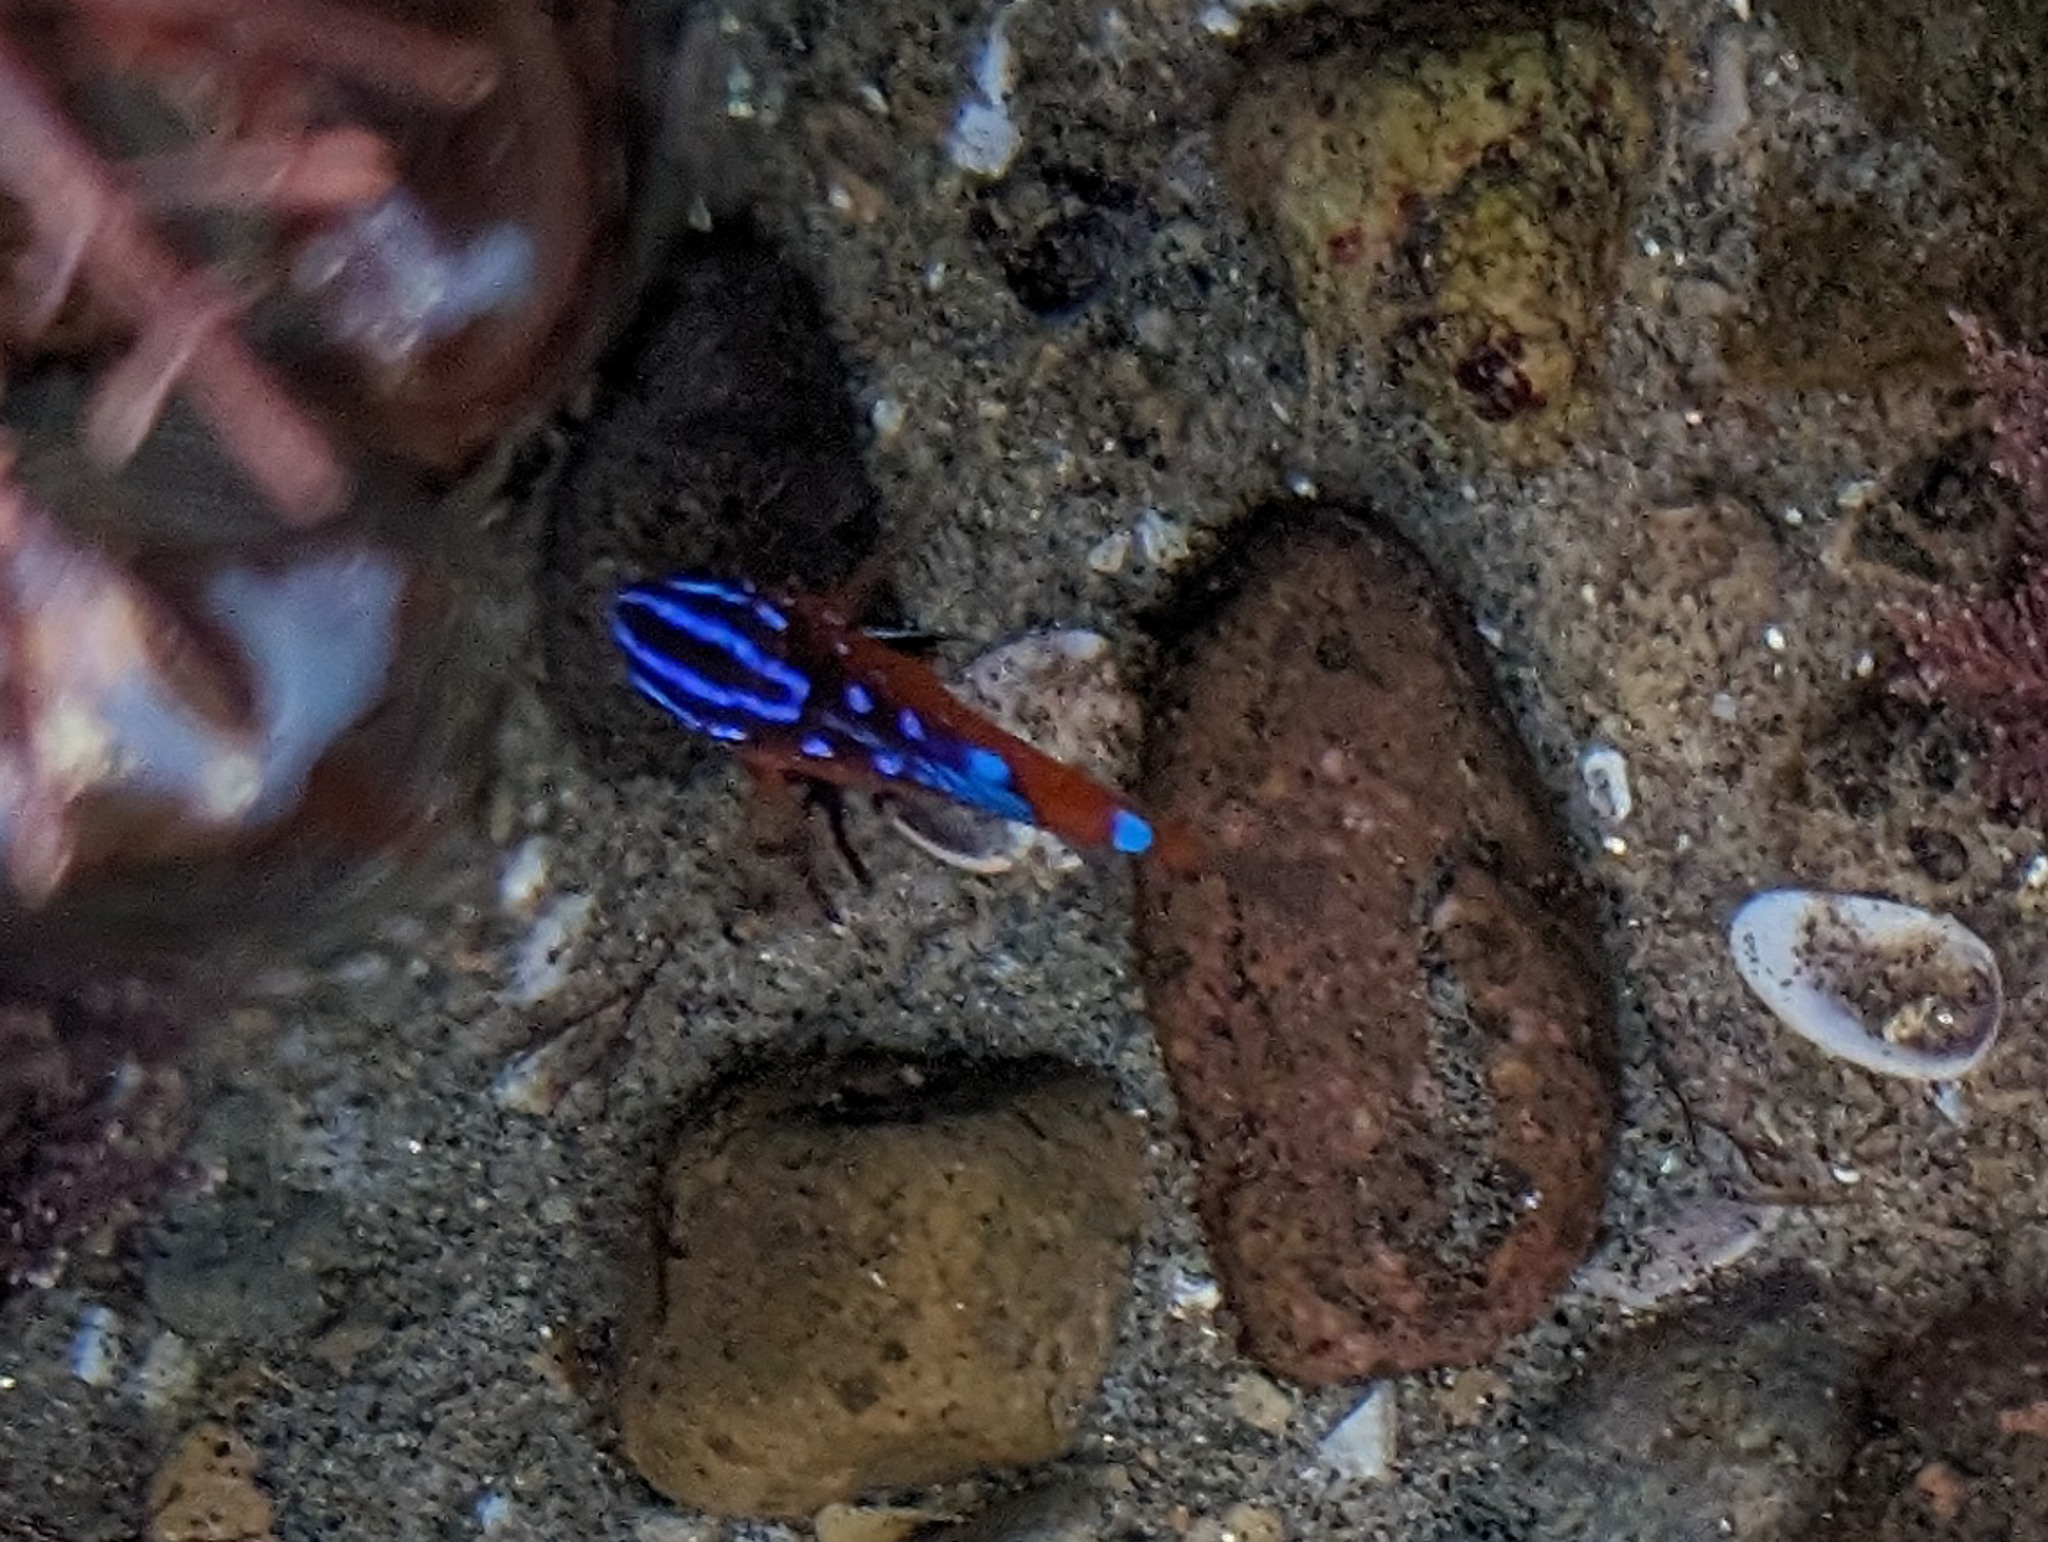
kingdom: Animalia
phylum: Chordata
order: Perciformes
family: Pomacentridae
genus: Hypsypops
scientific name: Hypsypops rubicundus
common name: Garibaldi
